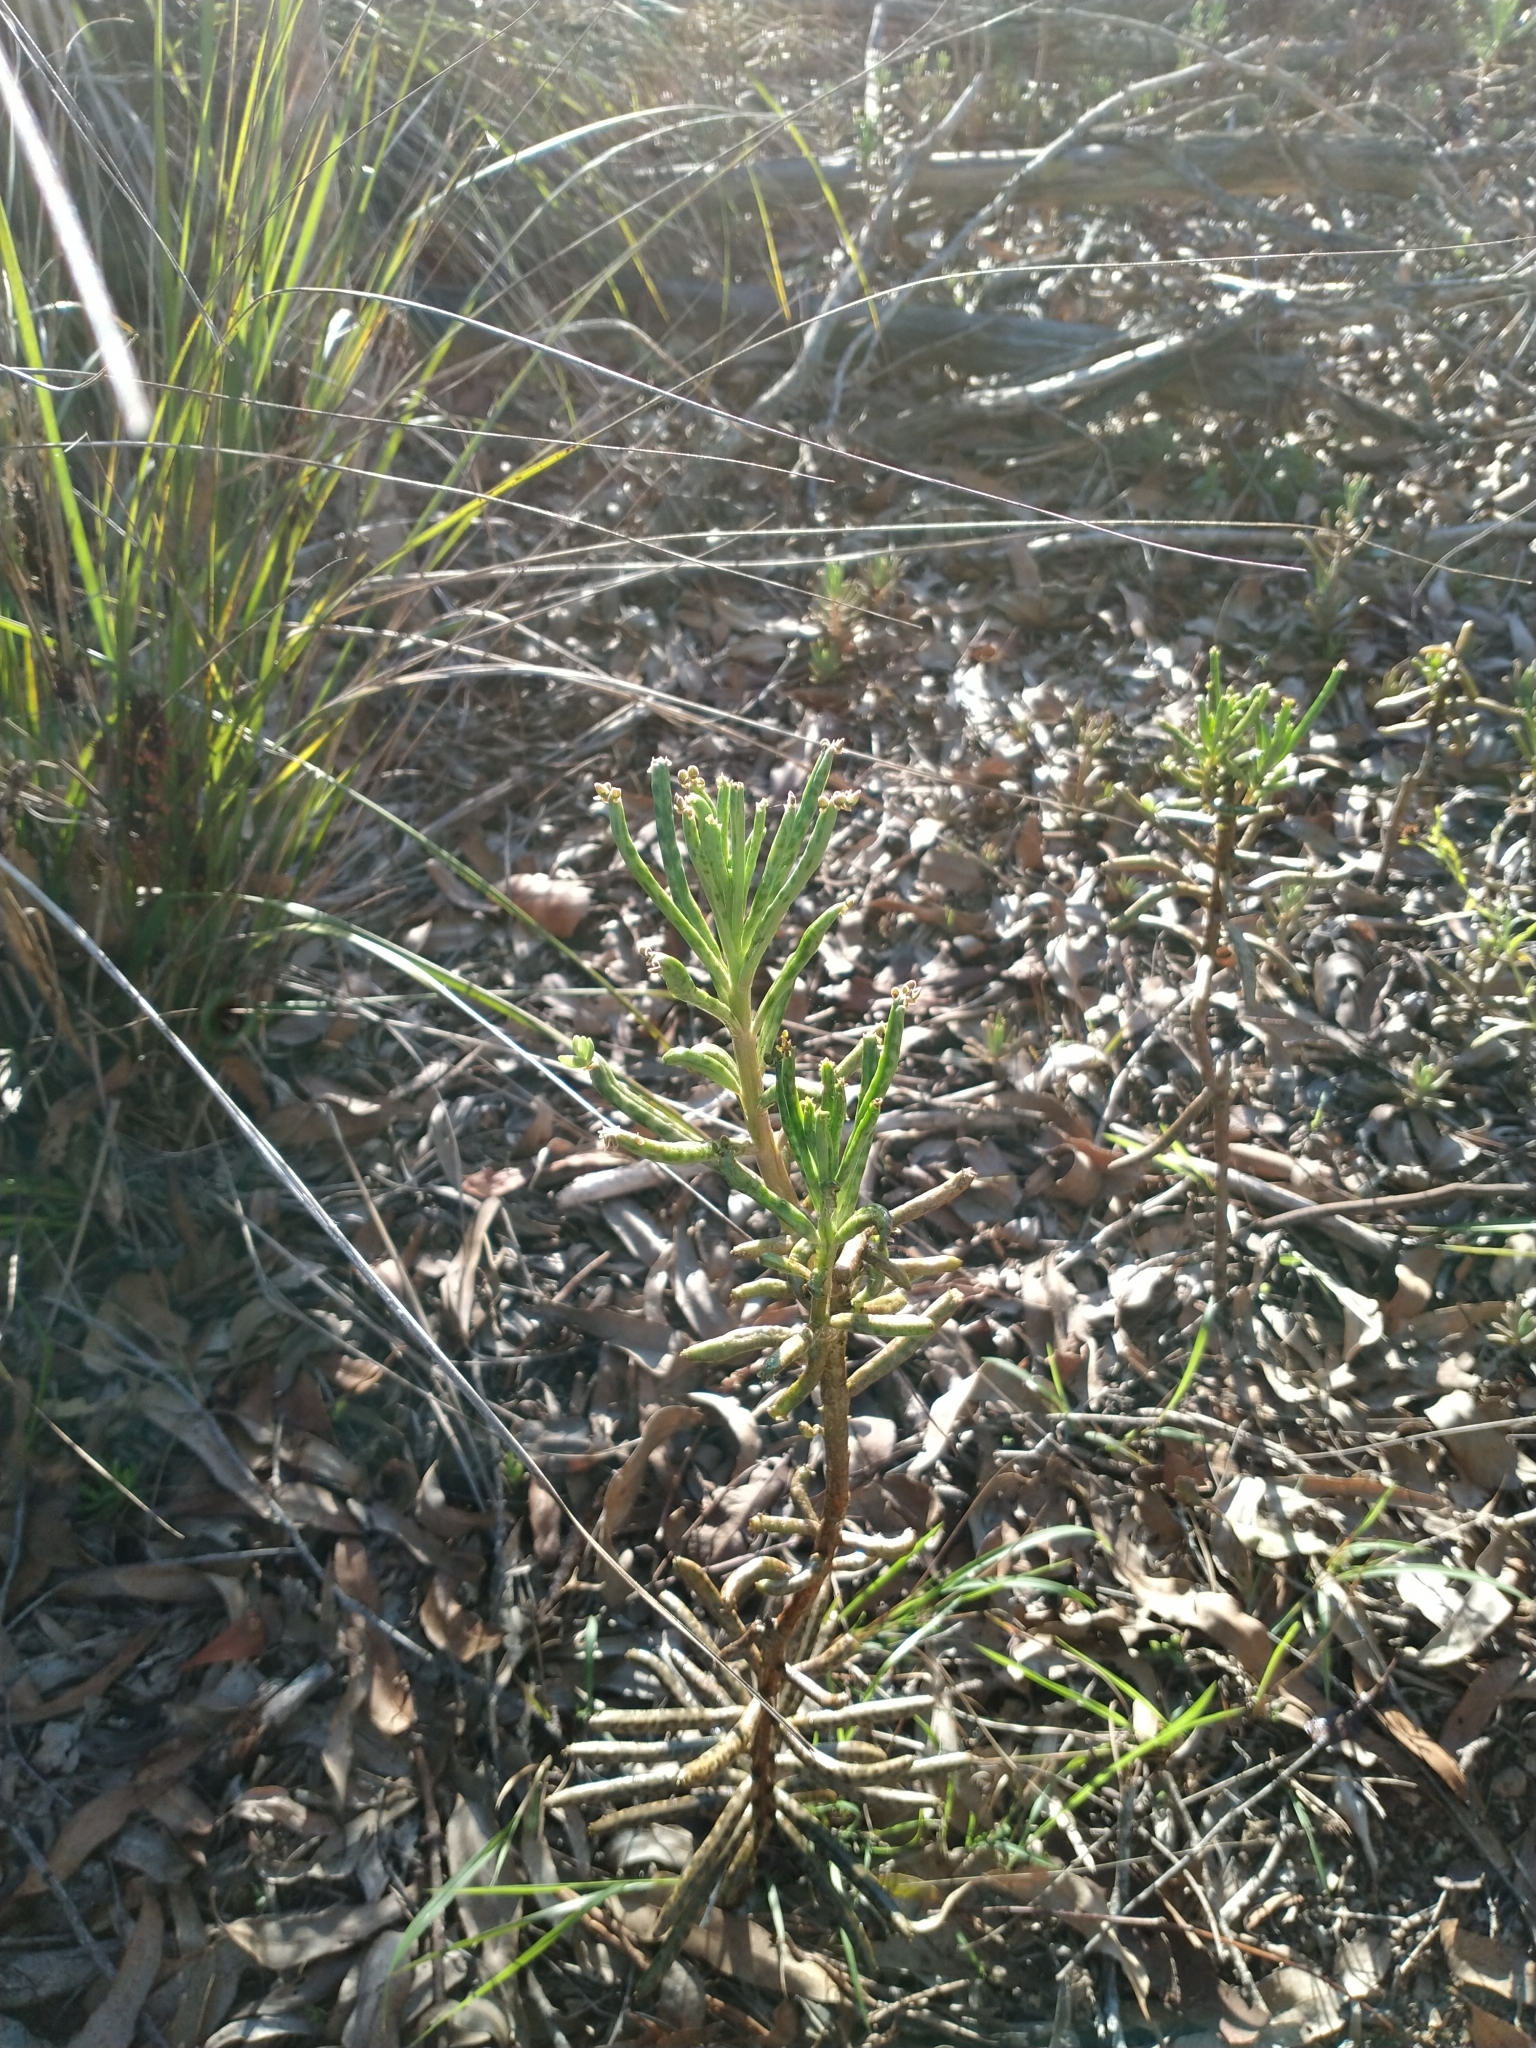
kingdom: Plantae
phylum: Tracheophyta
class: Magnoliopsida
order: Saxifragales
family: Crassulaceae
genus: Kalanchoe
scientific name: Kalanchoe delagoensis
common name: Chandelier plant
